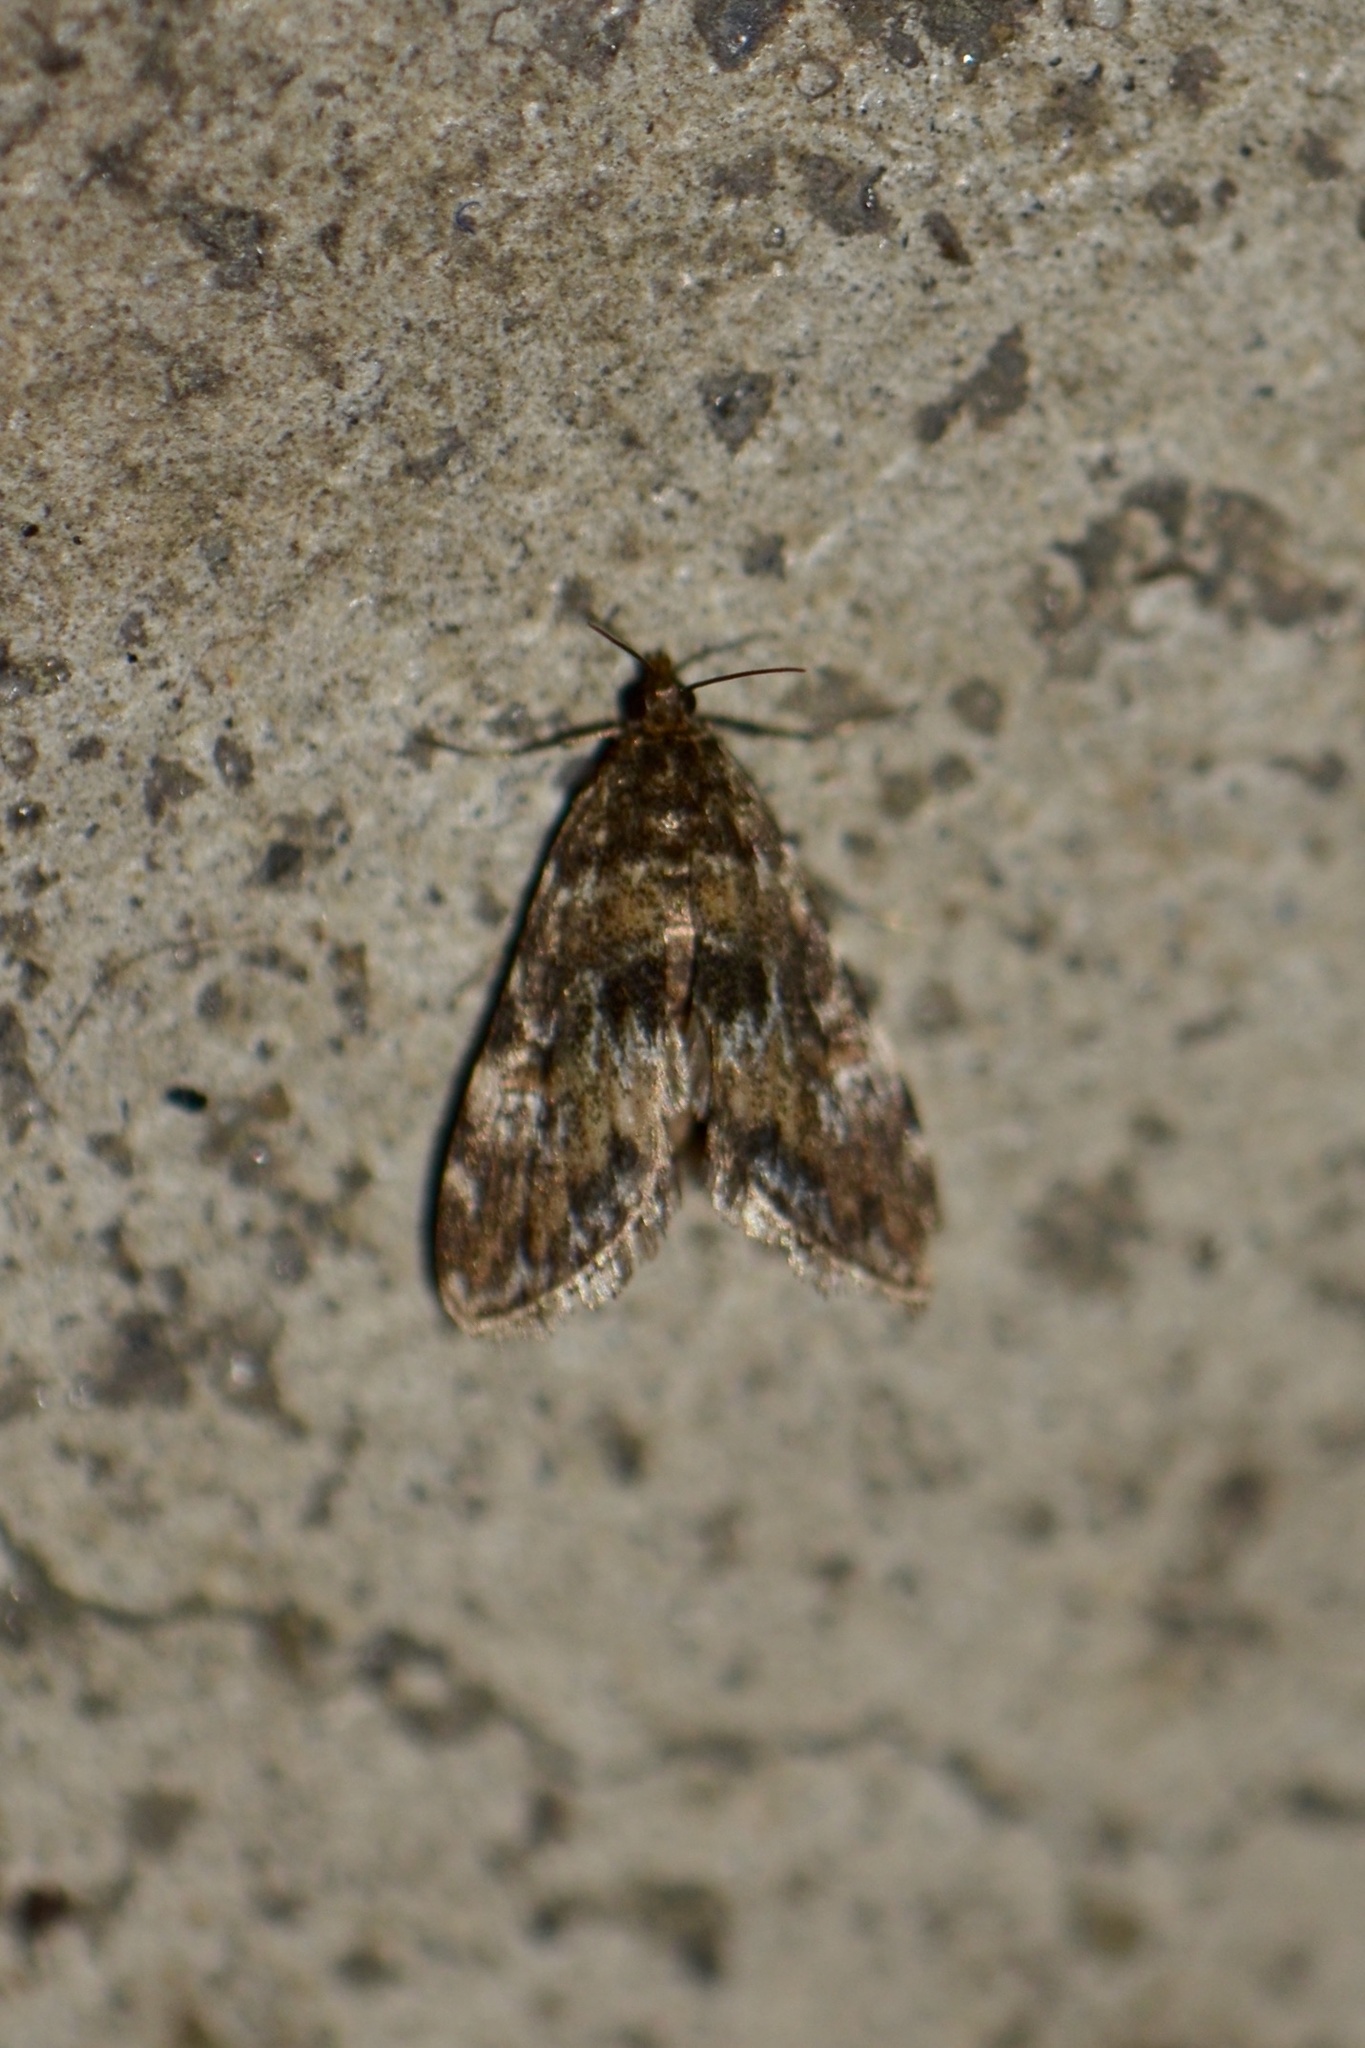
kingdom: Animalia
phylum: Arthropoda
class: Insecta
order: Lepidoptera
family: Crambidae
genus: Elophila
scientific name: Elophila obliteralis
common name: Waterlily leafcutter moth
